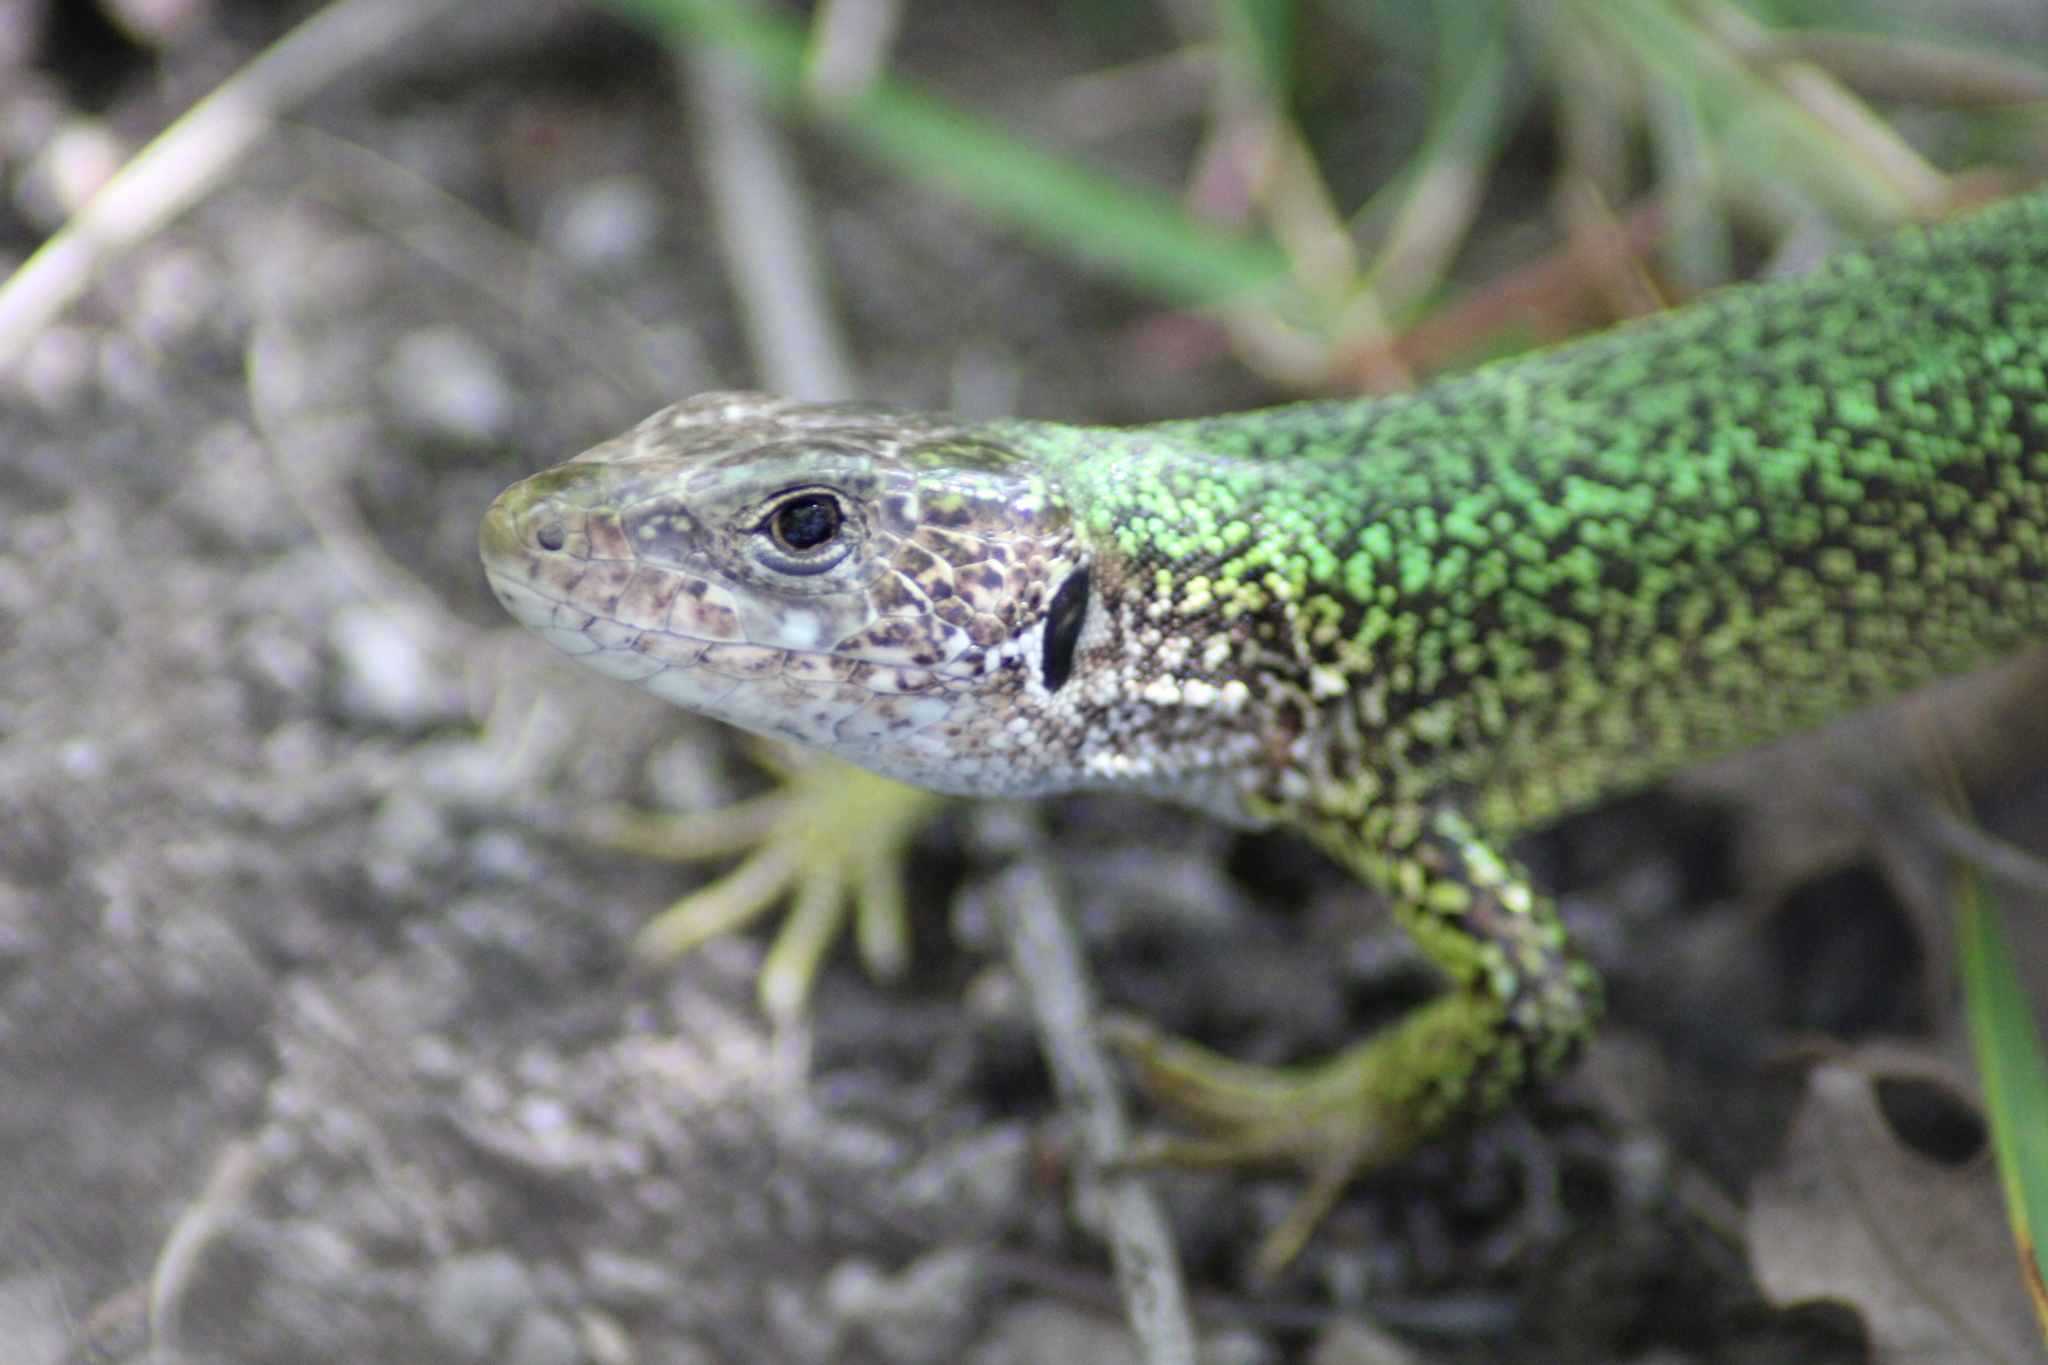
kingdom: Animalia
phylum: Chordata
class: Squamata
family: Lacertidae
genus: Lacerta
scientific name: Lacerta viridis
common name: European green lizard
